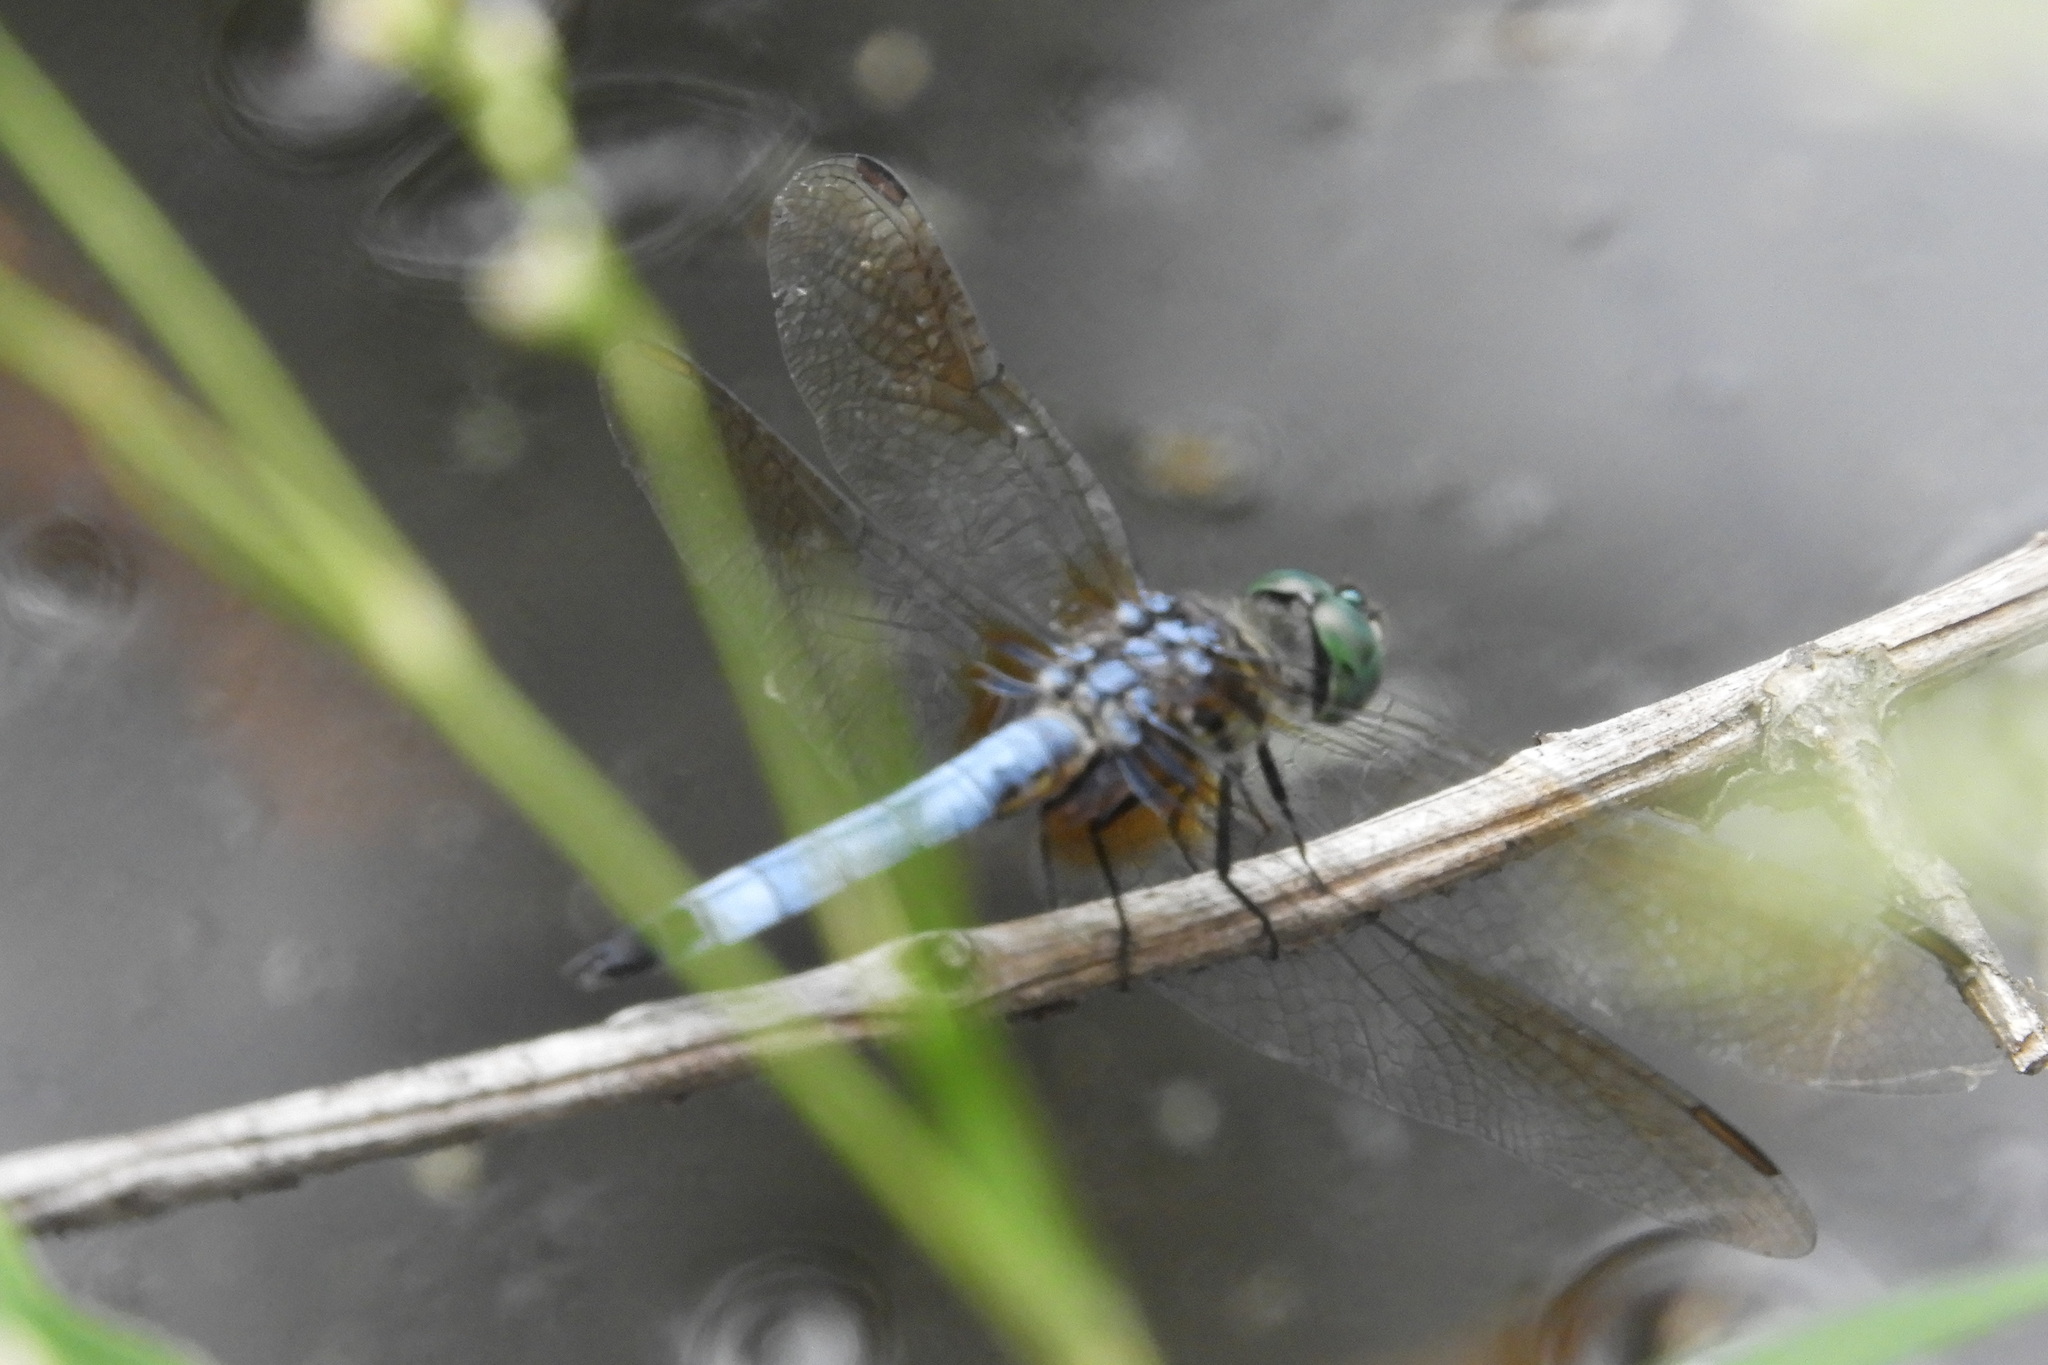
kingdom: Animalia
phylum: Arthropoda
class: Insecta
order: Odonata
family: Libellulidae
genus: Pachydiplax
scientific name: Pachydiplax longipennis
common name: Blue dasher
